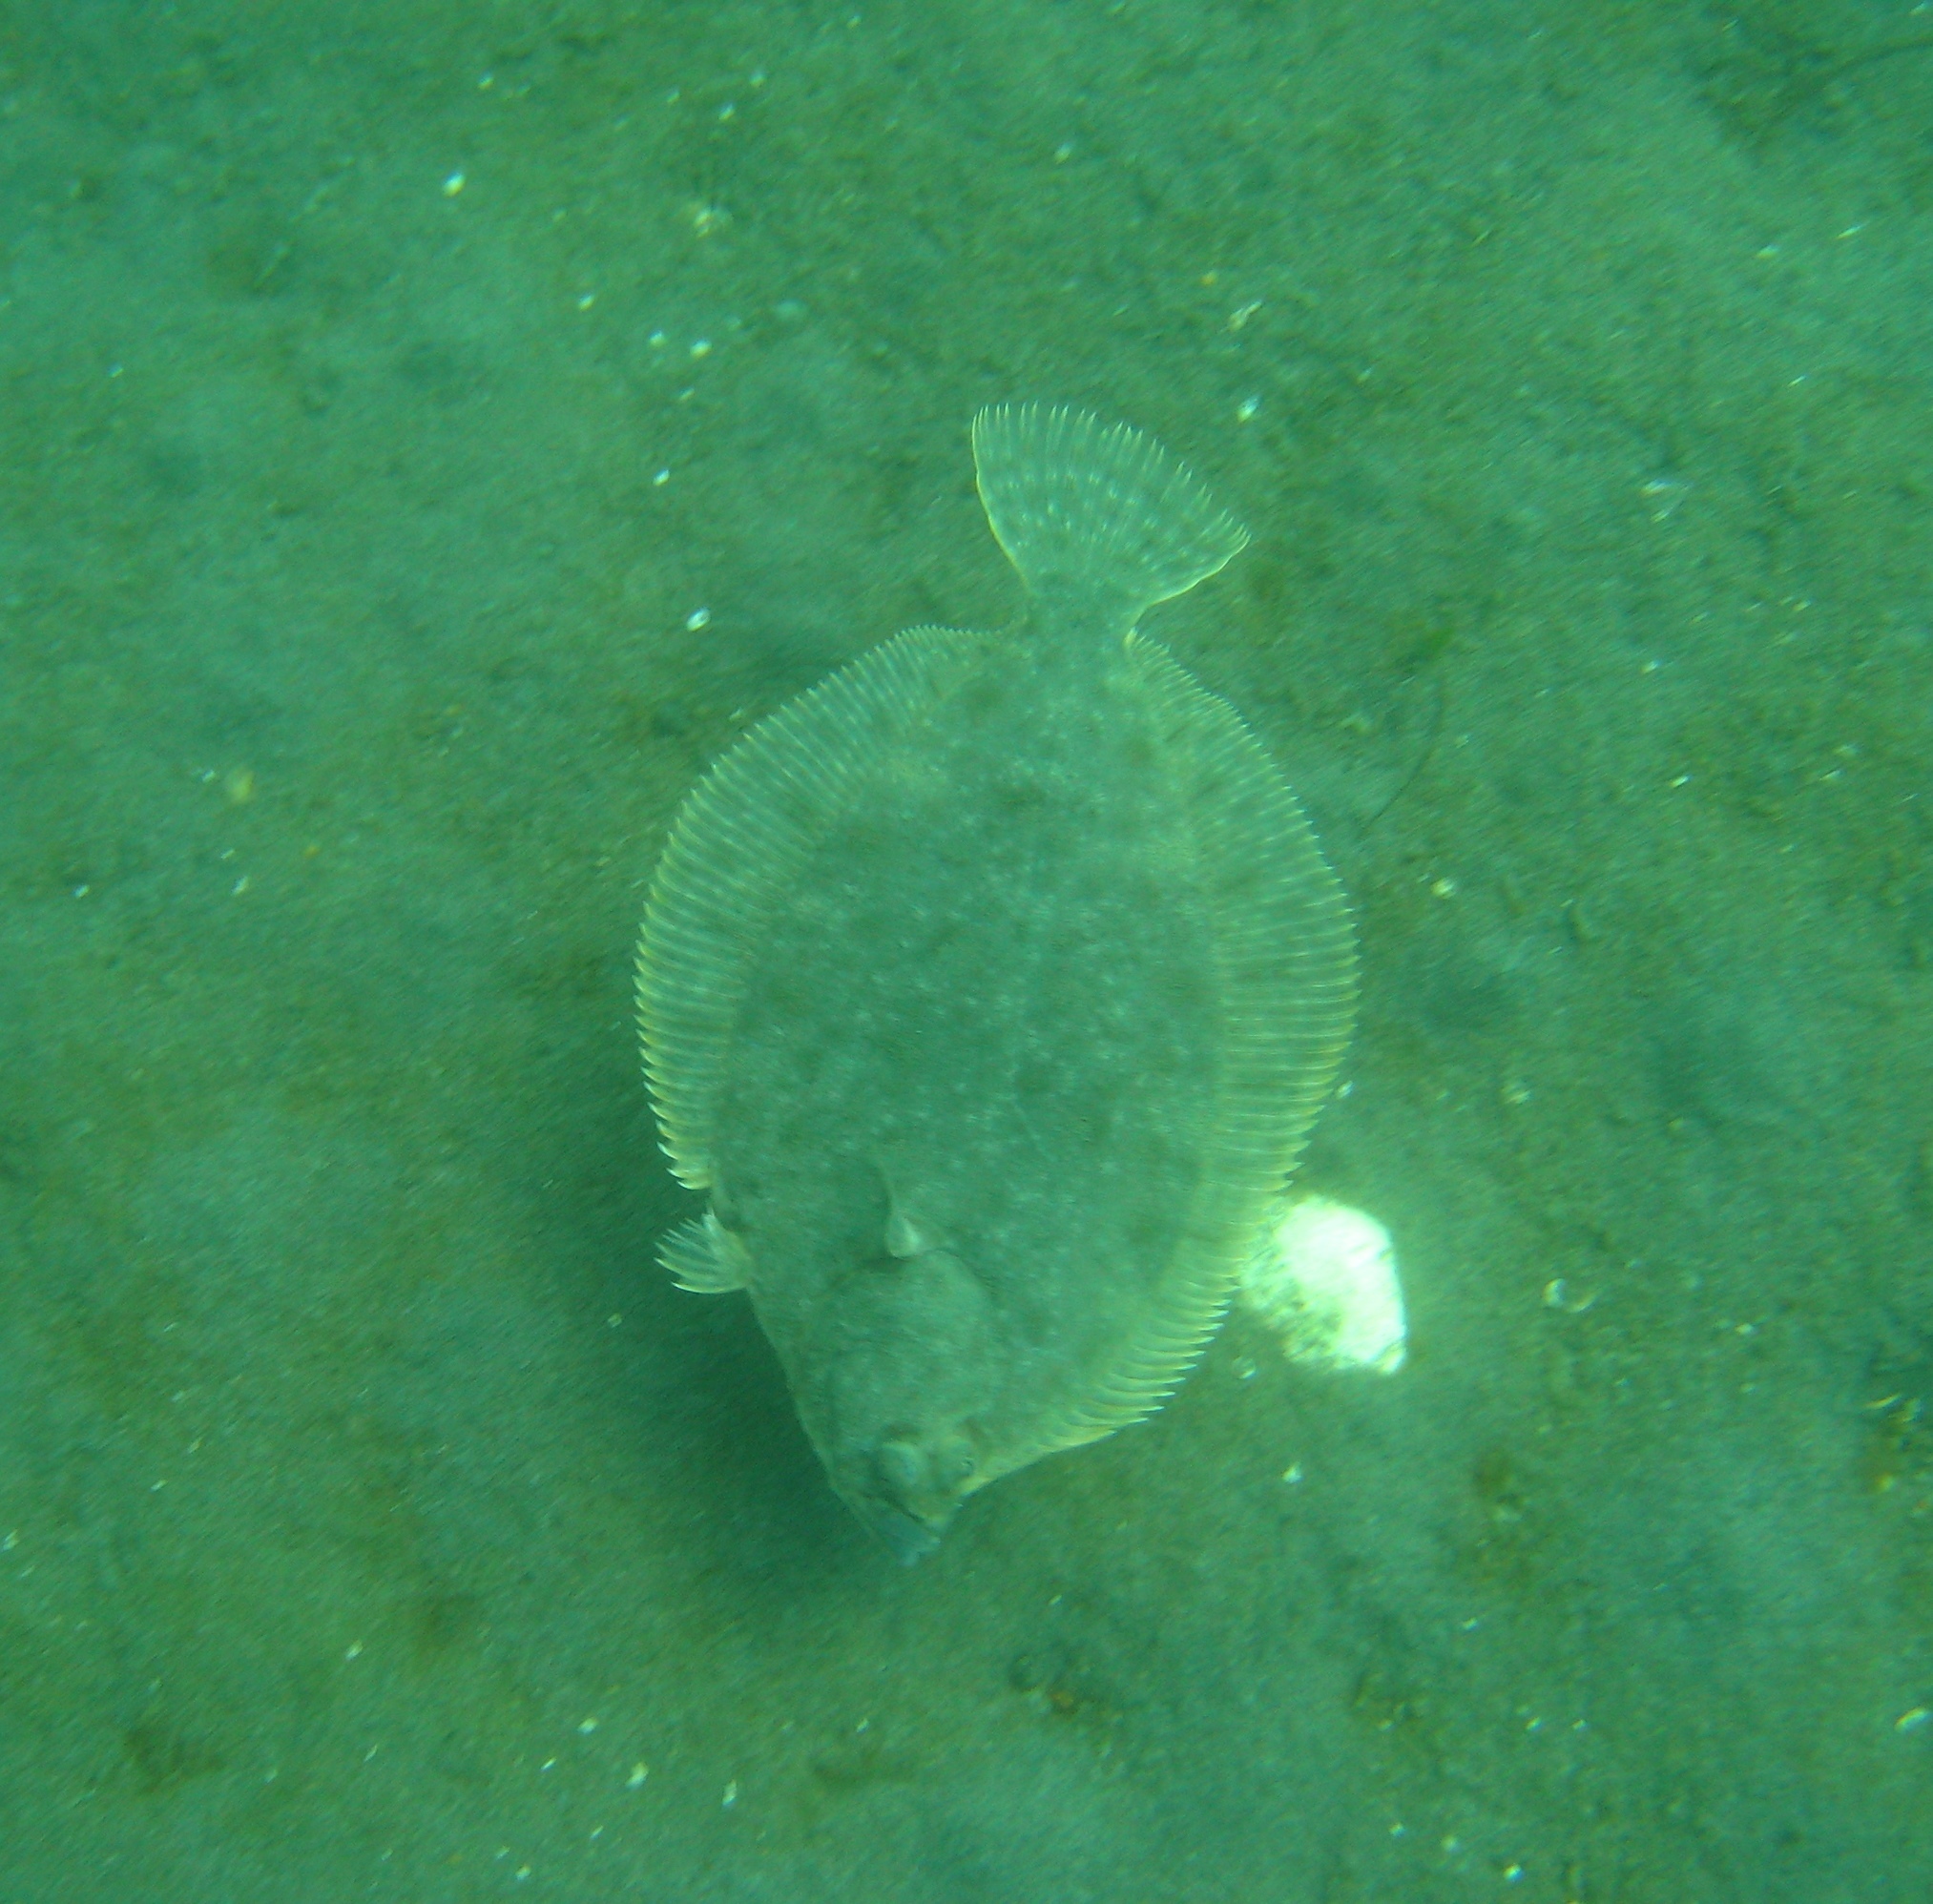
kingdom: Animalia
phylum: Chordata
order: Pleuronectiformes
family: Pleuronectidae
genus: Lepidopsetta
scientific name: Lepidopsetta bilineata
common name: Southern rock sole
